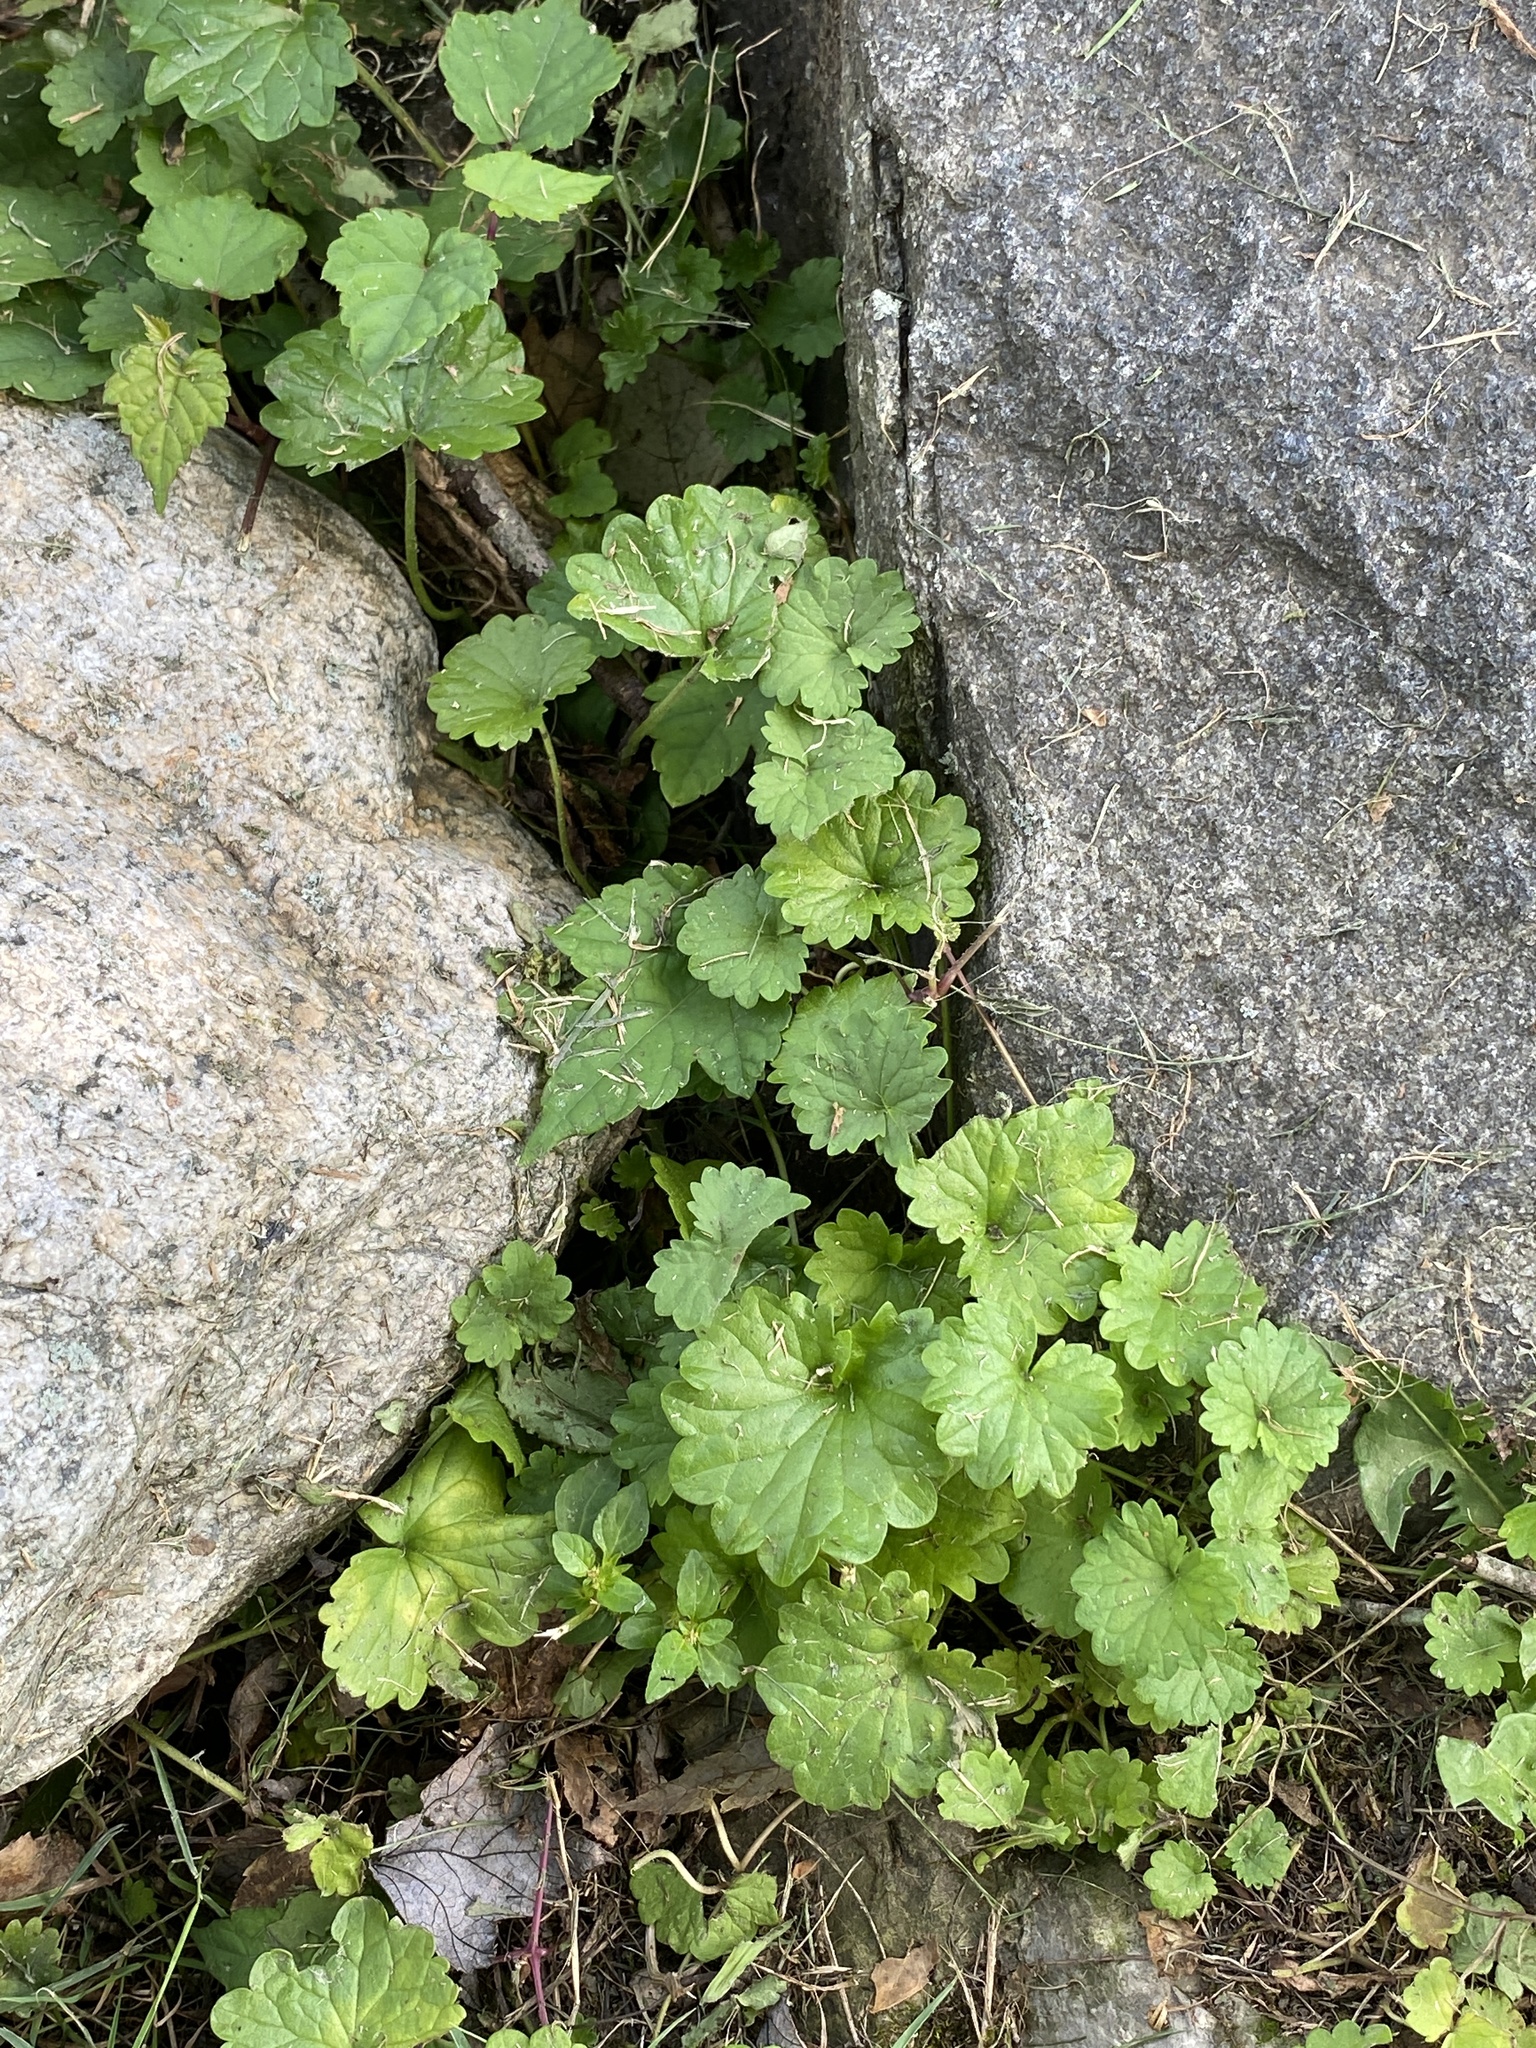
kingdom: Plantae
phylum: Tracheophyta
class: Magnoliopsida
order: Lamiales
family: Lamiaceae
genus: Glechoma
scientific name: Glechoma hederacea
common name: Ground ivy
